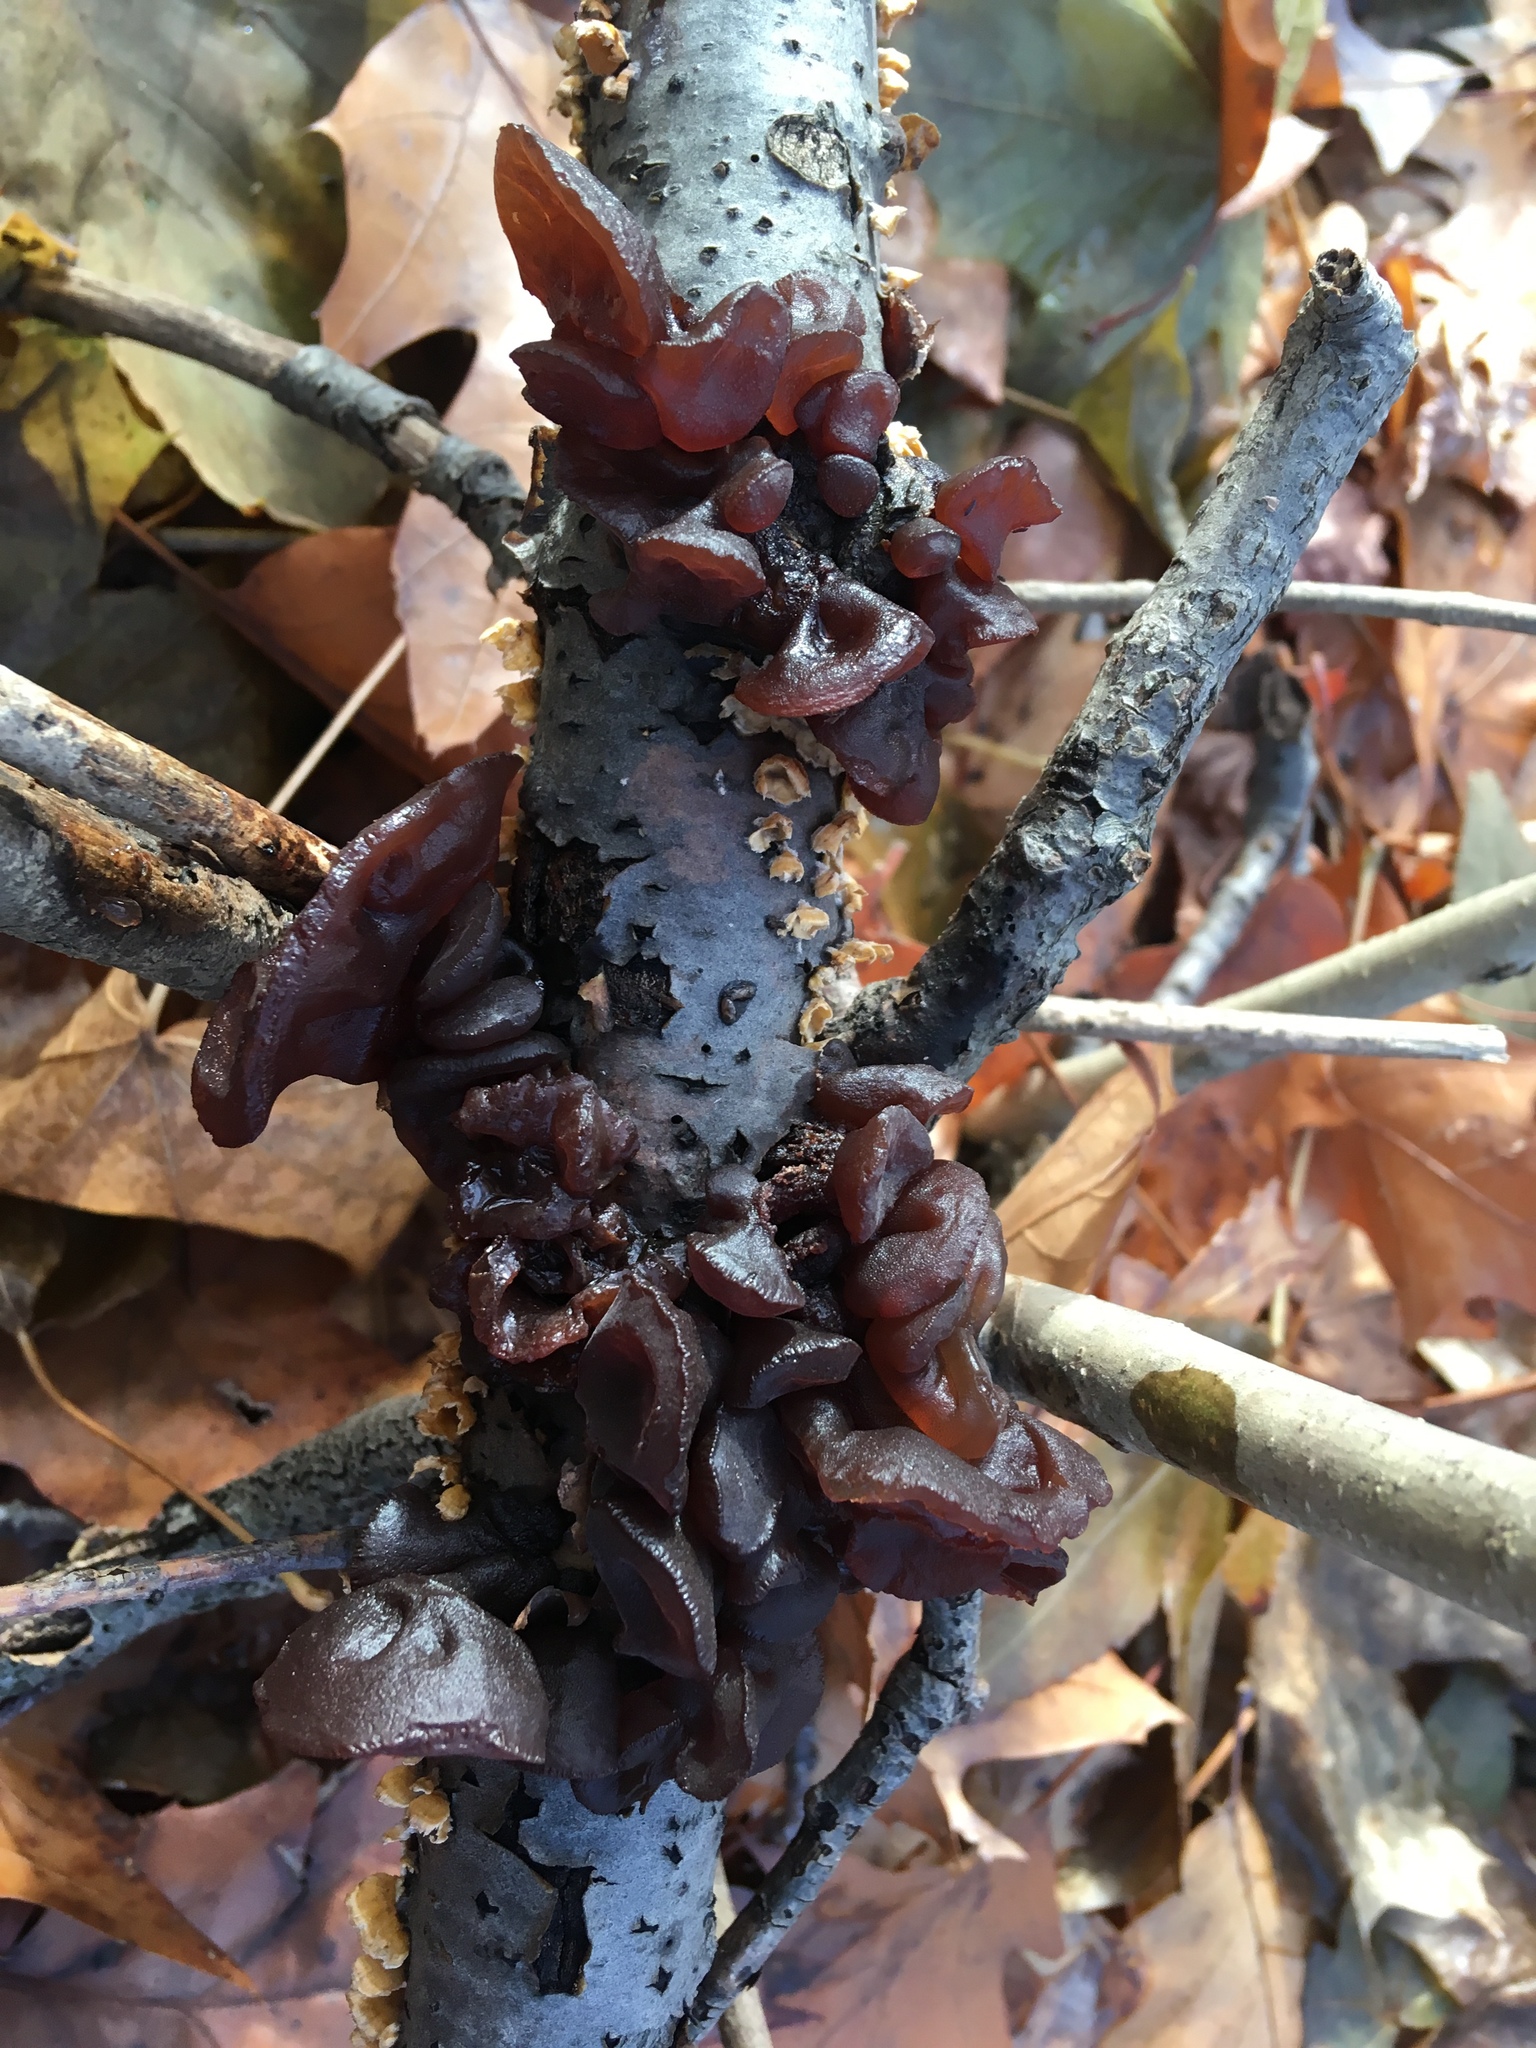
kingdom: Fungi
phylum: Basidiomycota
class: Agaricomycetes
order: Auriculariales
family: Auriculariaceae
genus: Exidia
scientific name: Exidia
